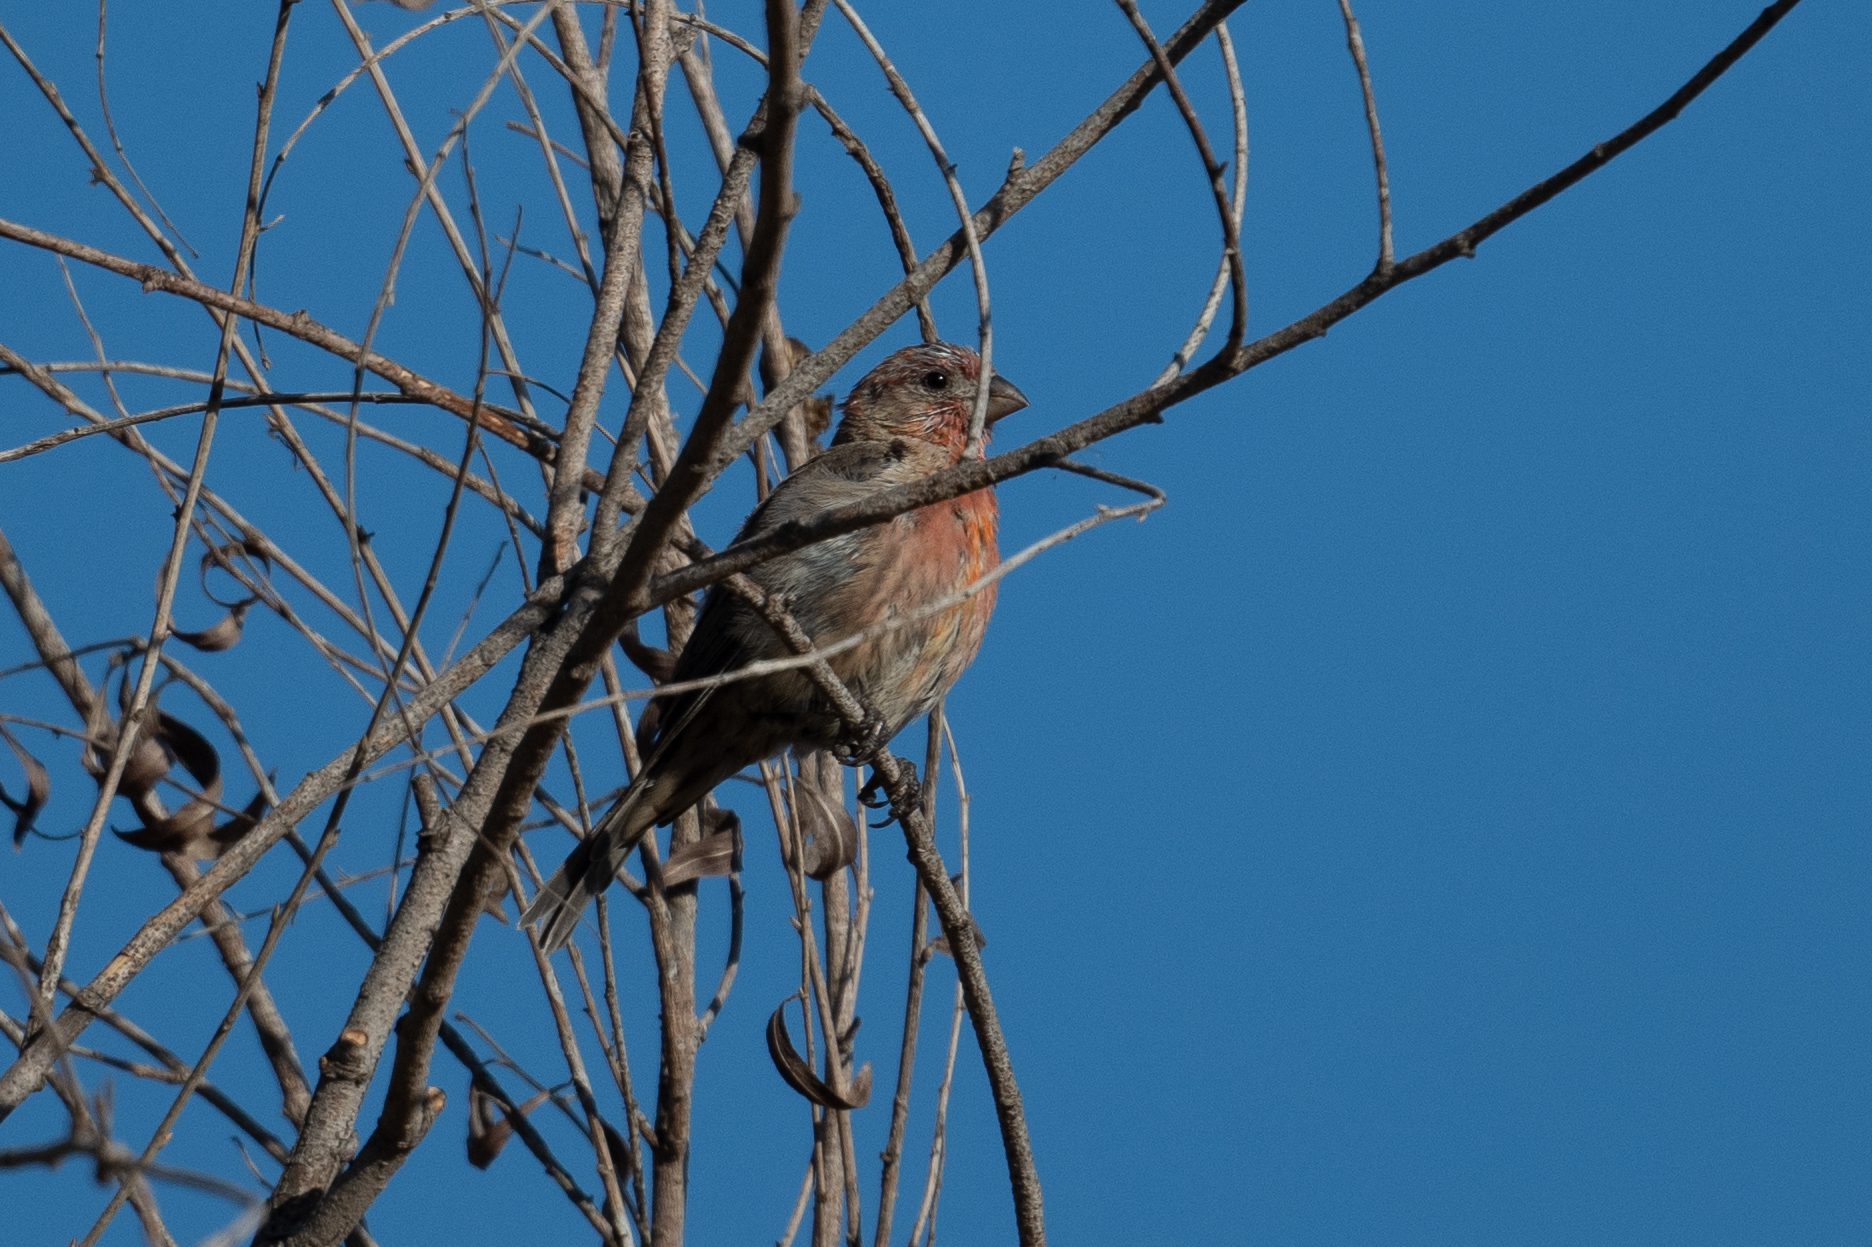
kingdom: Animalia
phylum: Chordata
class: Aves
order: Passeriformes
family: Fringillidae
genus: Haemorhous
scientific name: Haemorhous mexicanus
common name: House finch
